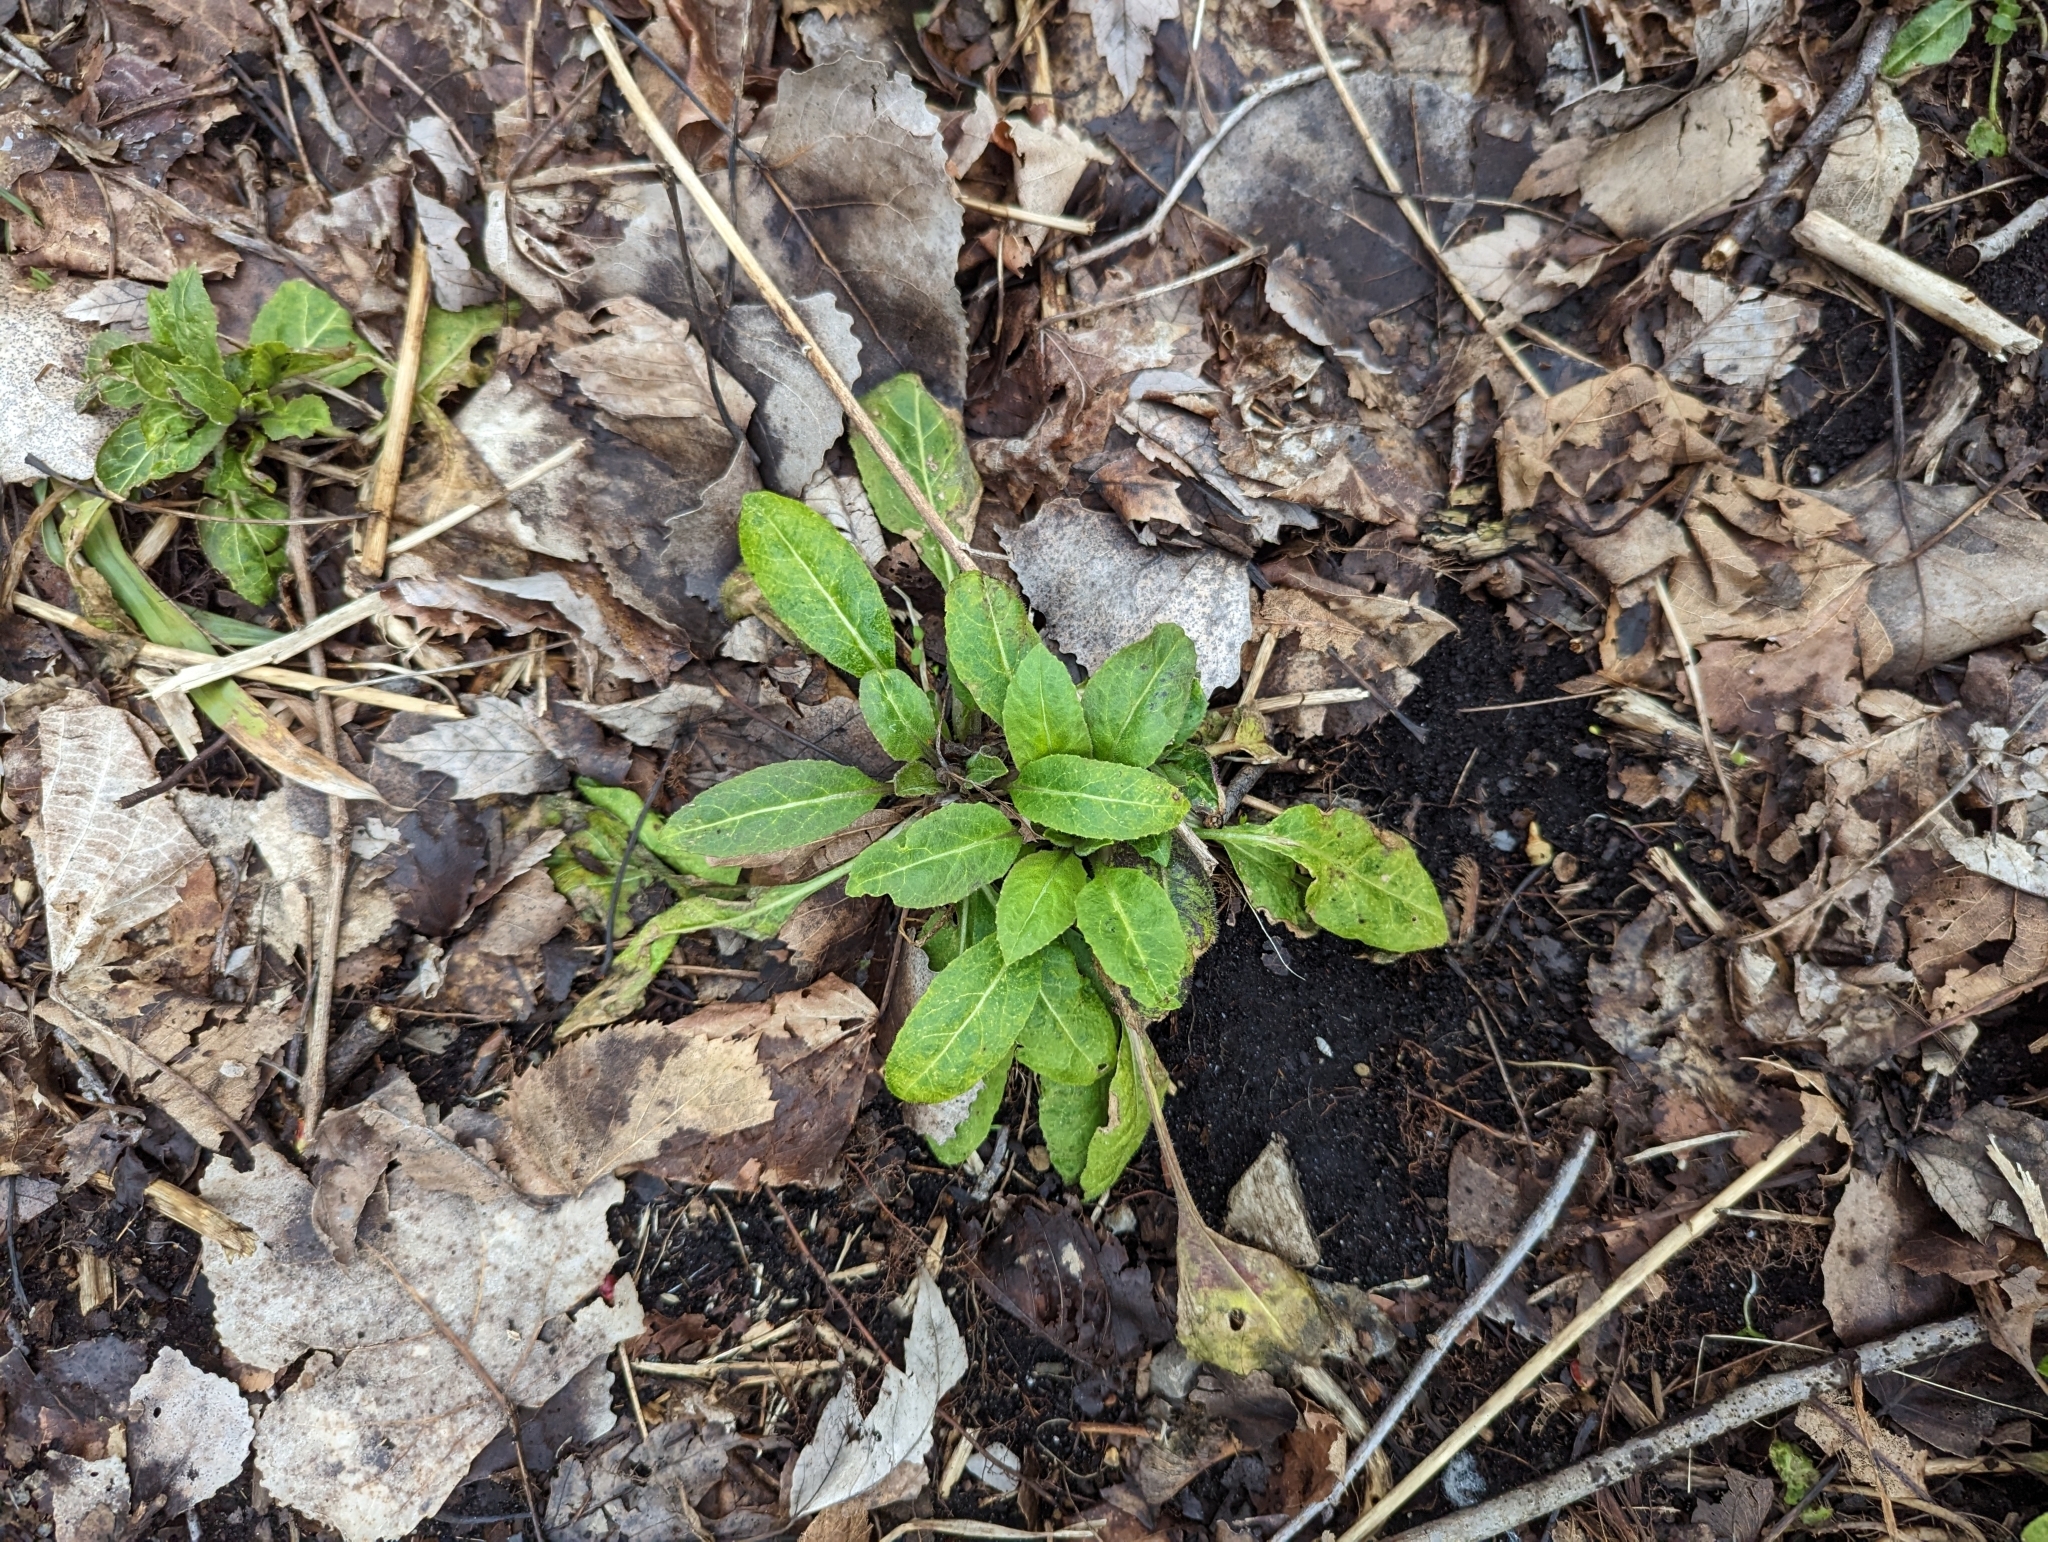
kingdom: Plantae
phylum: Tracheophyta
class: Magnoliopsida
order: Brassicales
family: Brassicaceae
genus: Hesperis
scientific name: Hesperis matronalis
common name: Dame's-violet
